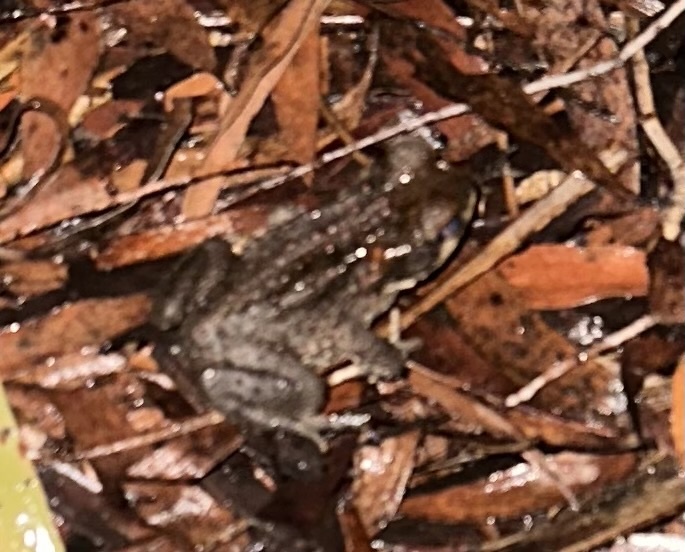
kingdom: Animalia
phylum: Chordata
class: Amphibia
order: Anura
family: Bufonidae
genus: Rhinella
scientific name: Rhinella marina
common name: Cane toad
